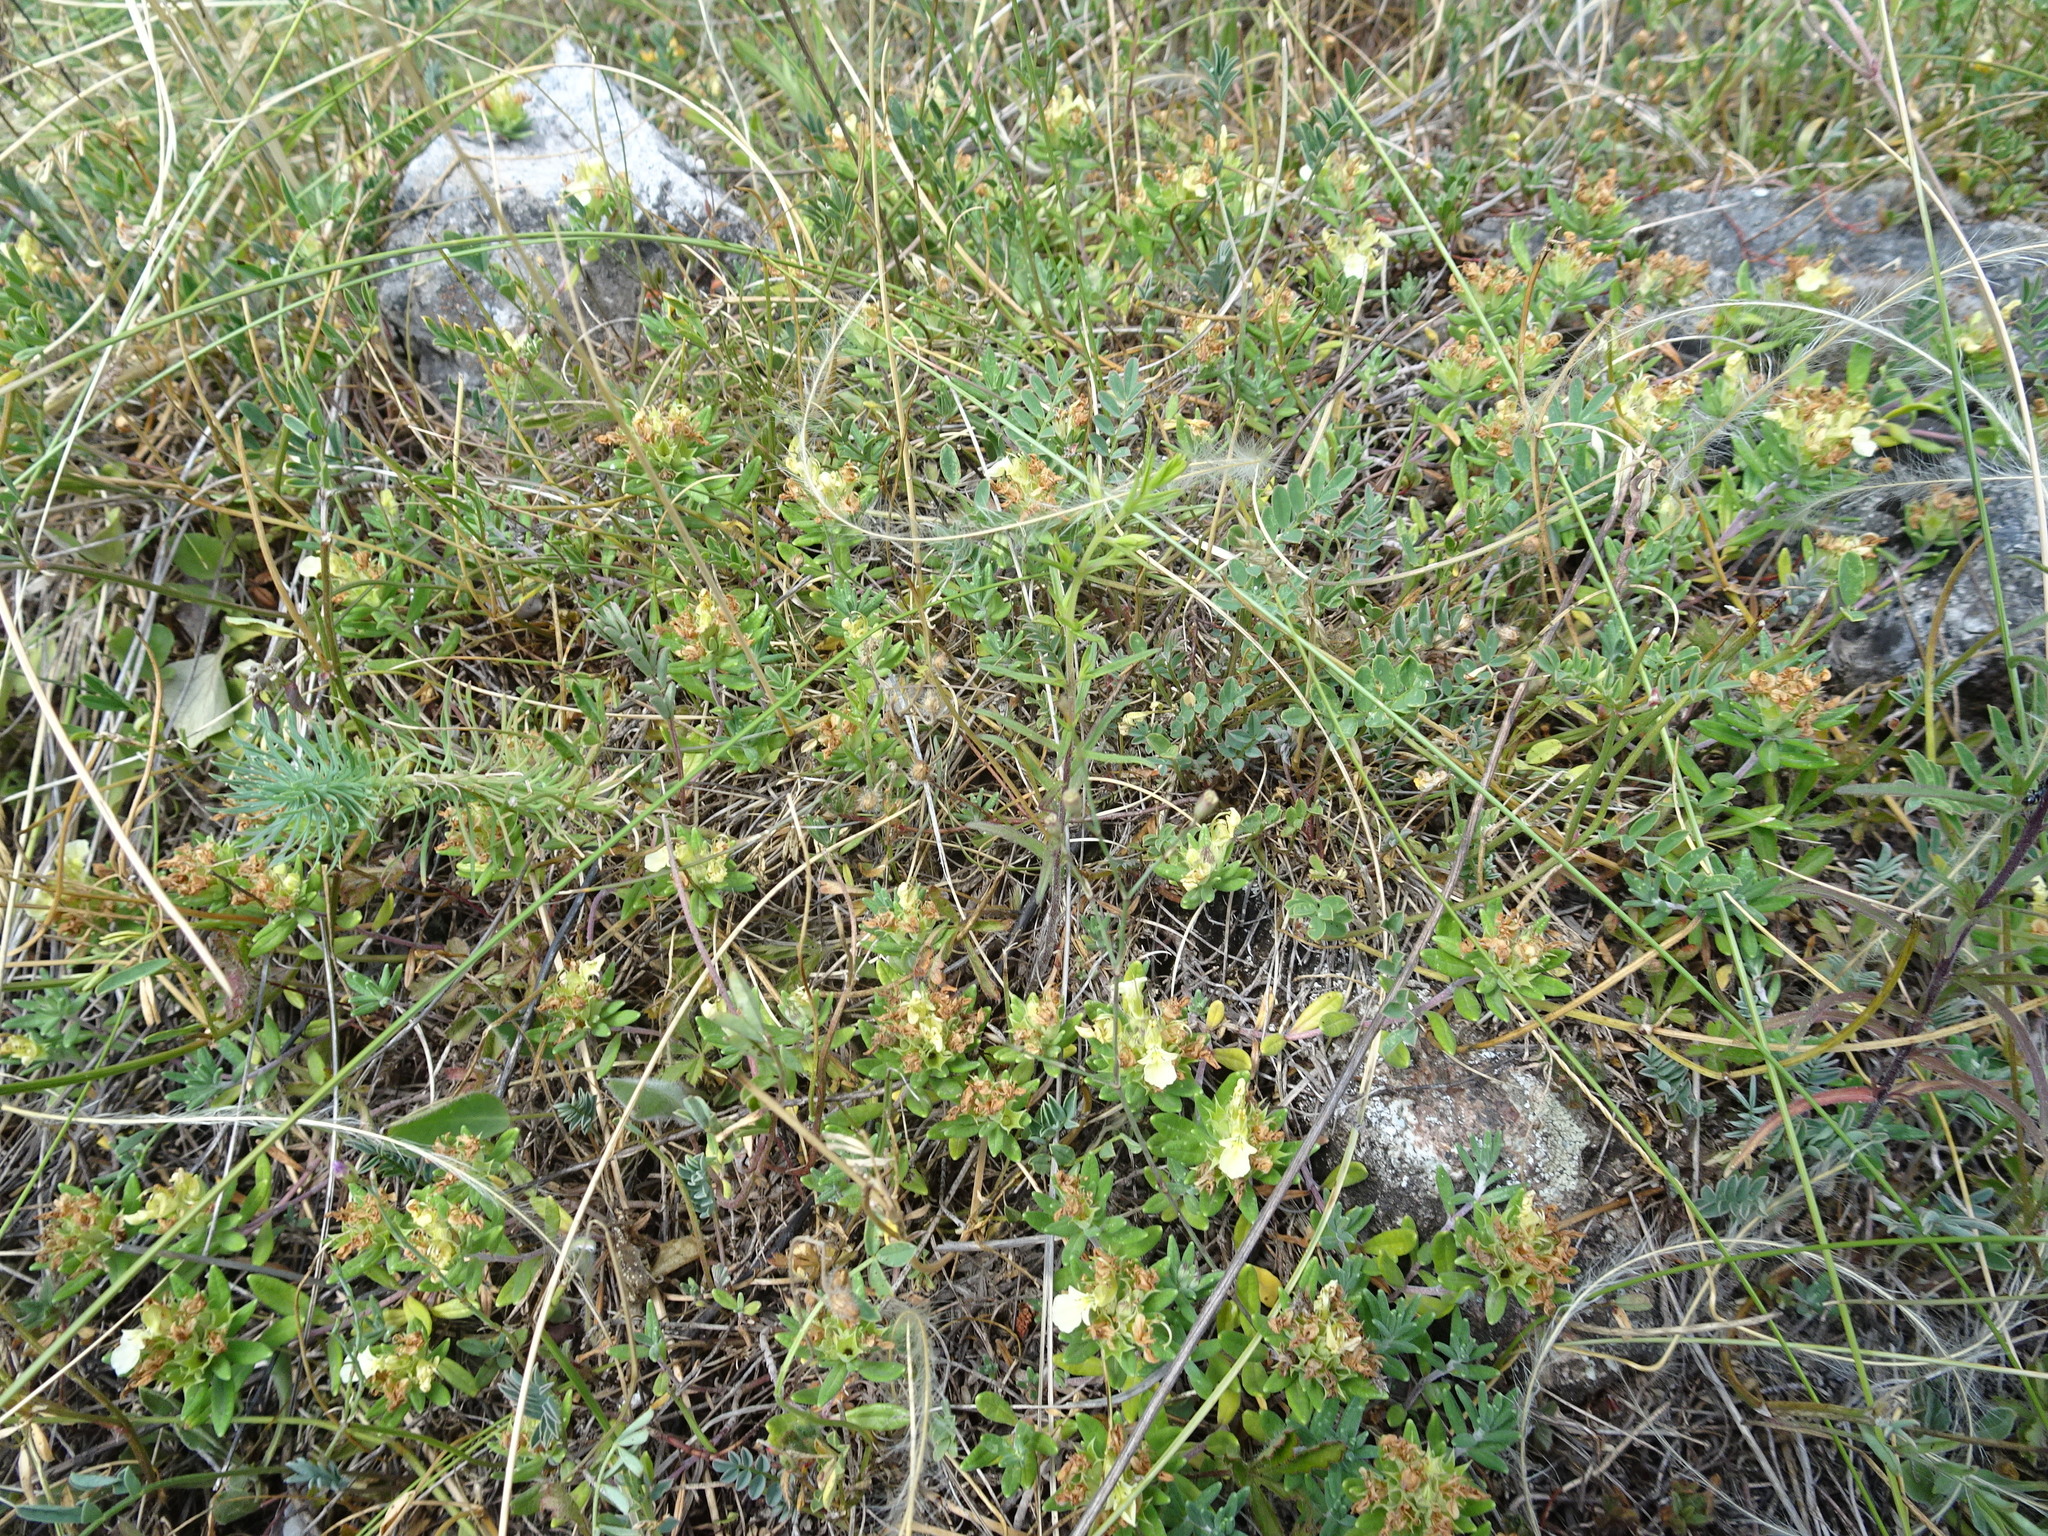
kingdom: Plantae
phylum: Tracheophyta
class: Magnoliopsida
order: Lamiales
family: Lamiaceae
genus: Teucrium
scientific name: Teucrium montanum
